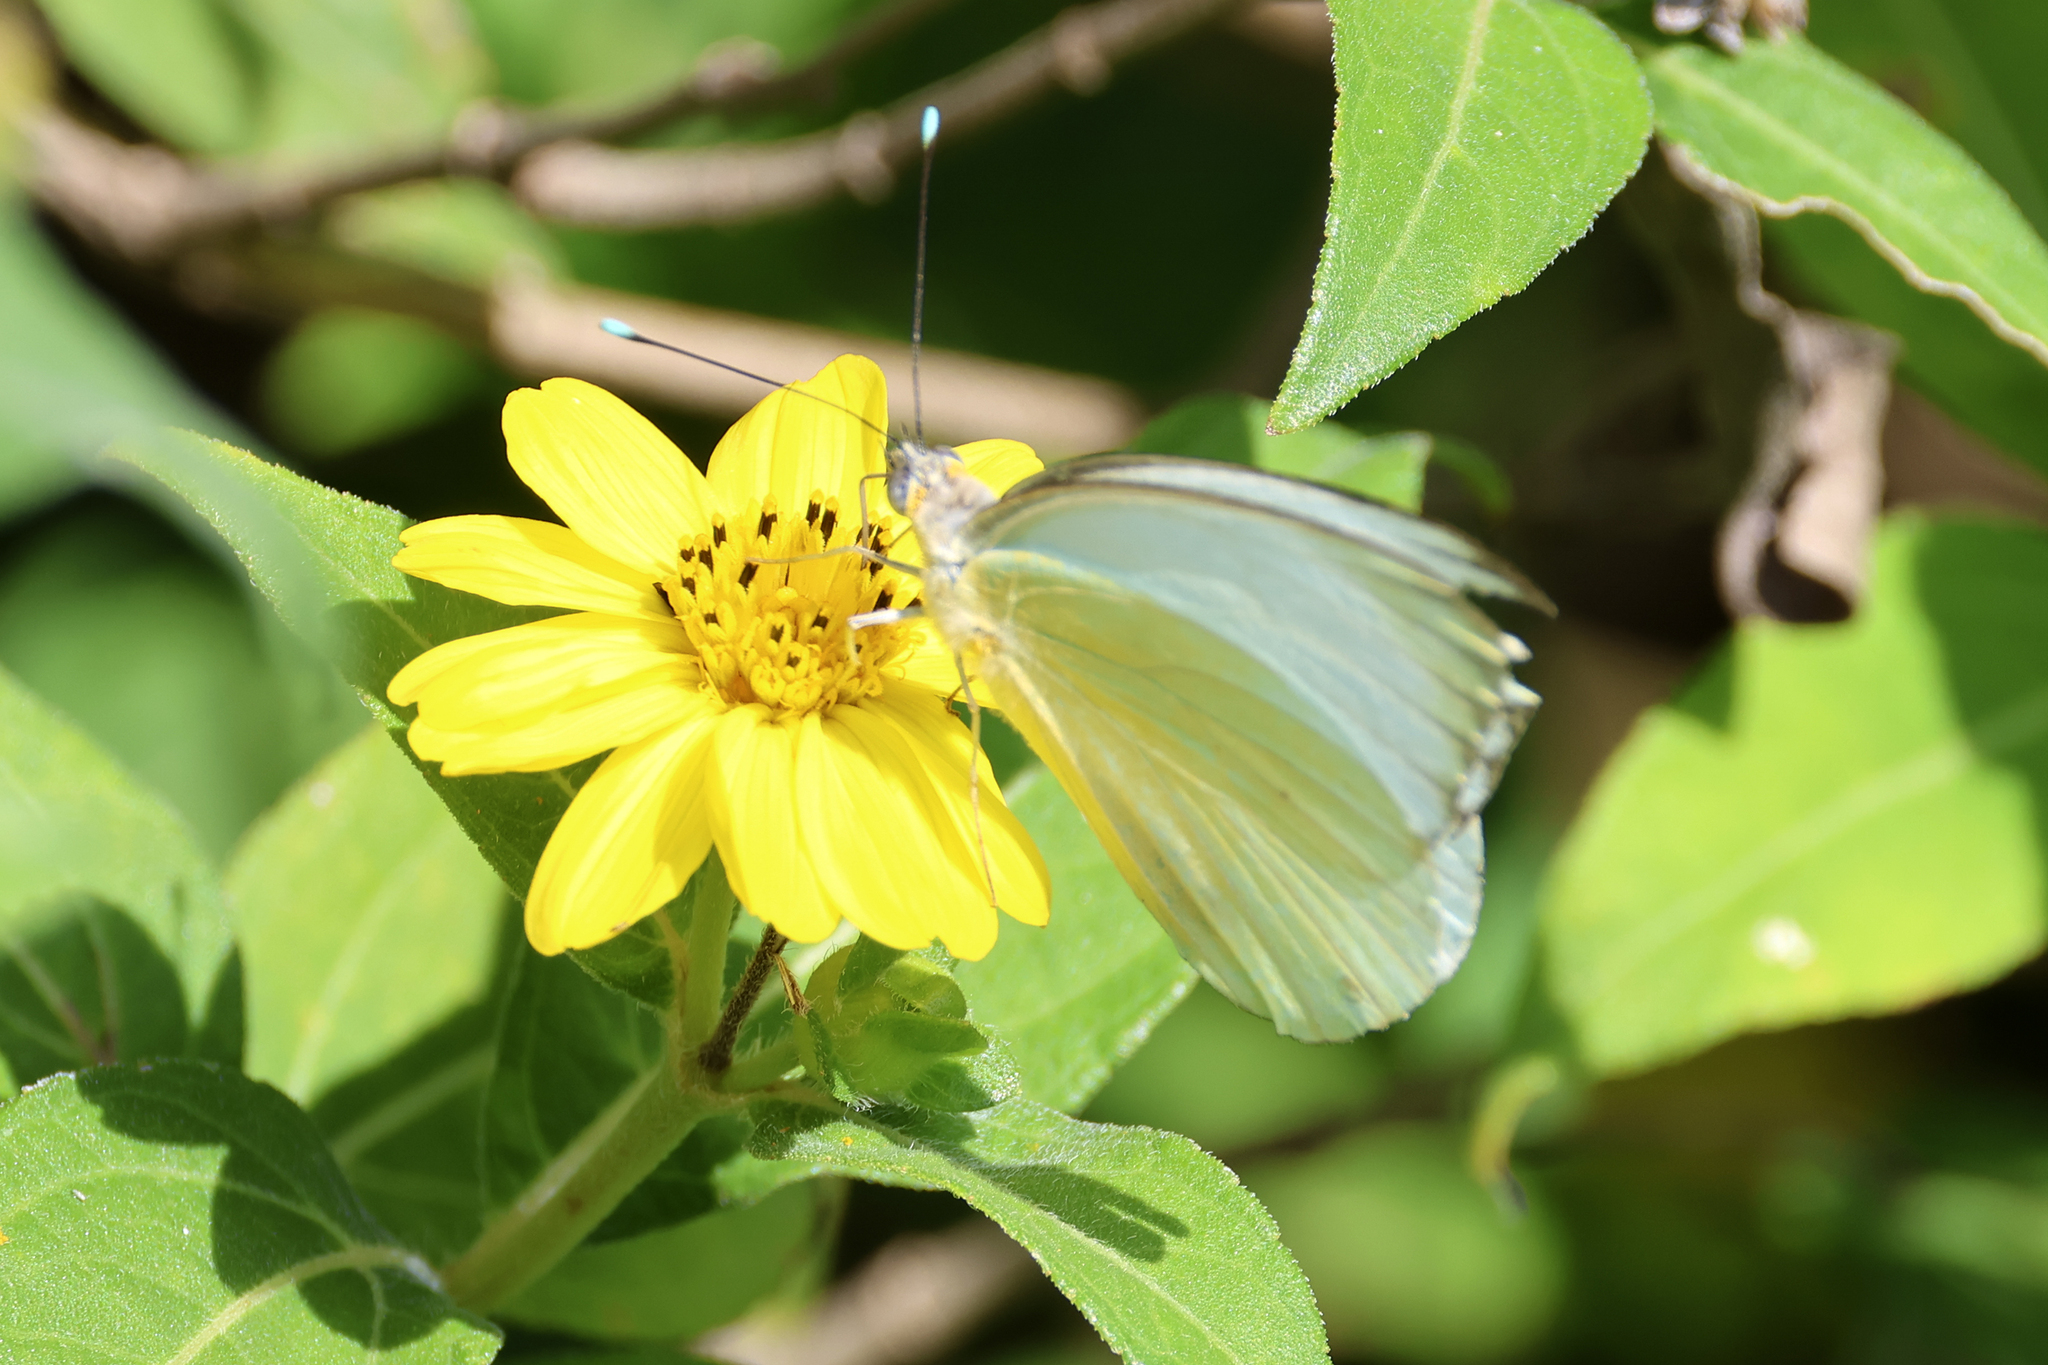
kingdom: Animalia
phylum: Arthropoda
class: Insecta
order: Lepidoptera
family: Pieridae
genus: Ascia
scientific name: Ascia monuste
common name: Great southern white
